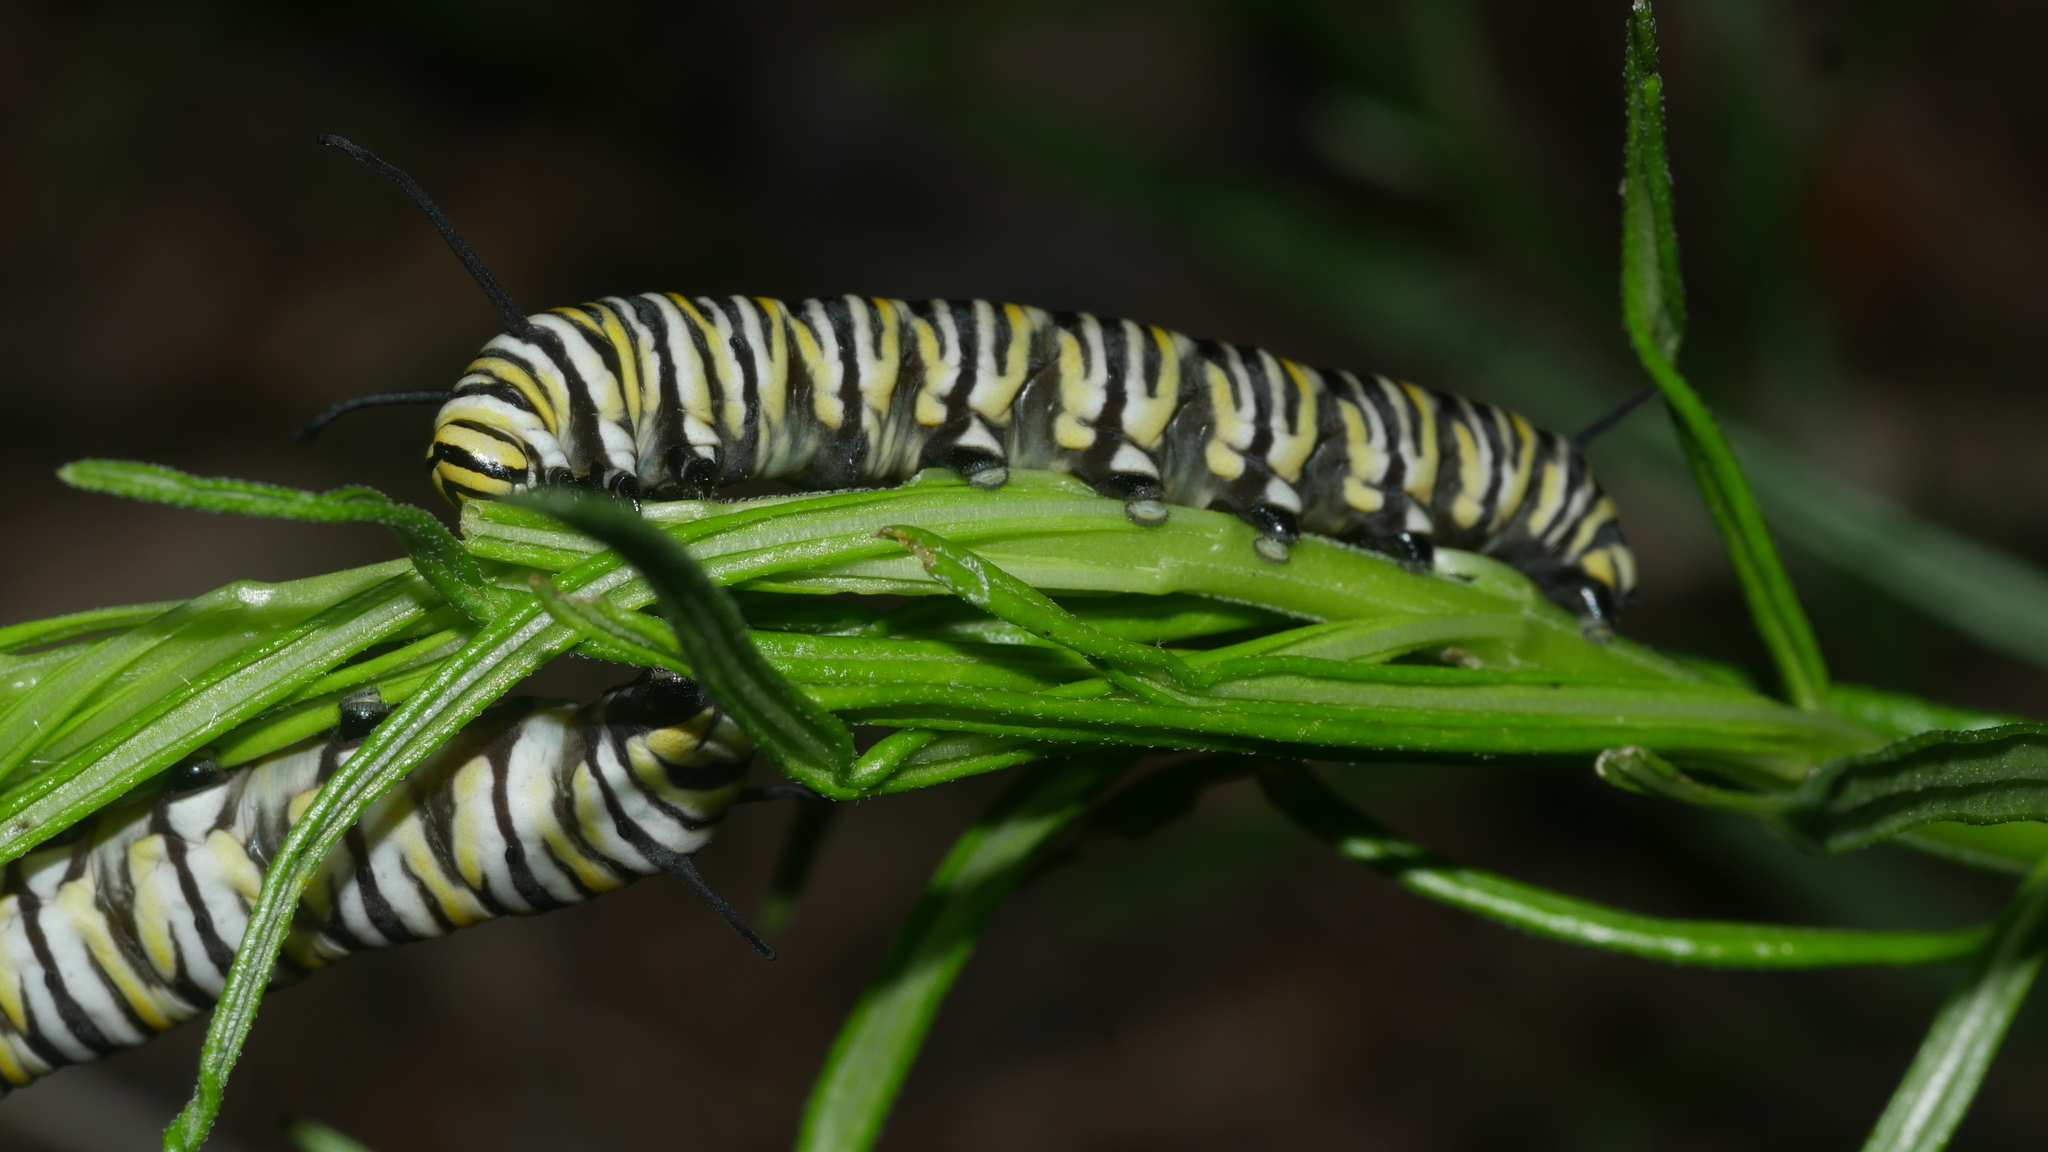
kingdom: Animalia
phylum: Arthropoda
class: Insecta
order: Lepidoptera
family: Nymphalidae
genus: Danaus
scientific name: Danaus plexippus
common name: Monarch
